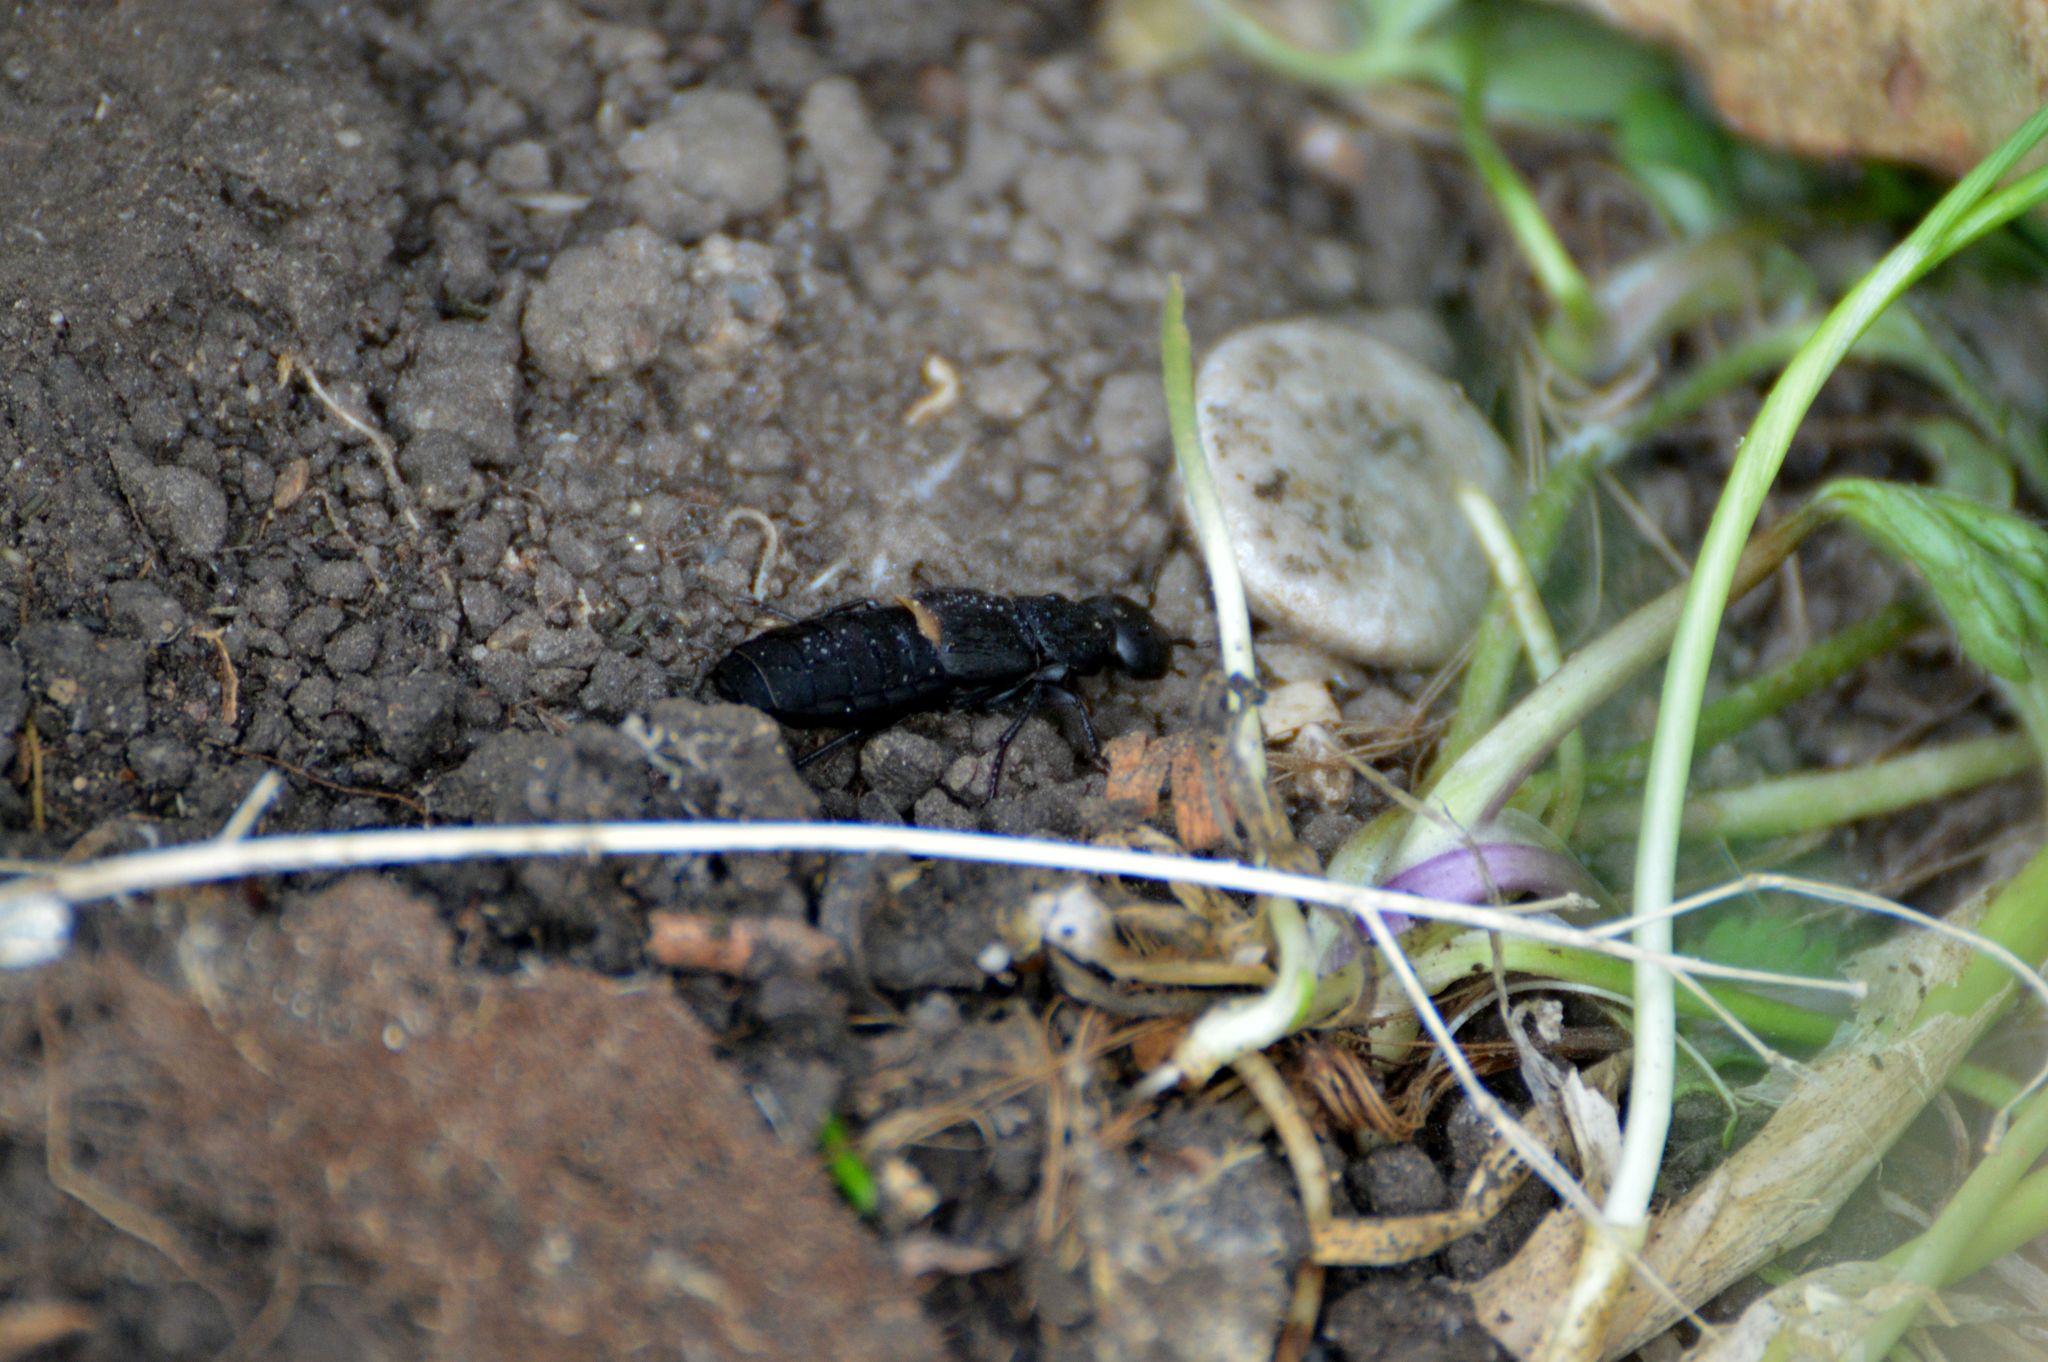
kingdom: Animalia
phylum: Arthropoda
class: Insecta
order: Coleoptera
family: Staphylinidae
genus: Ocypus
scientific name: Ocypus olens
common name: Devil's coach-horse
